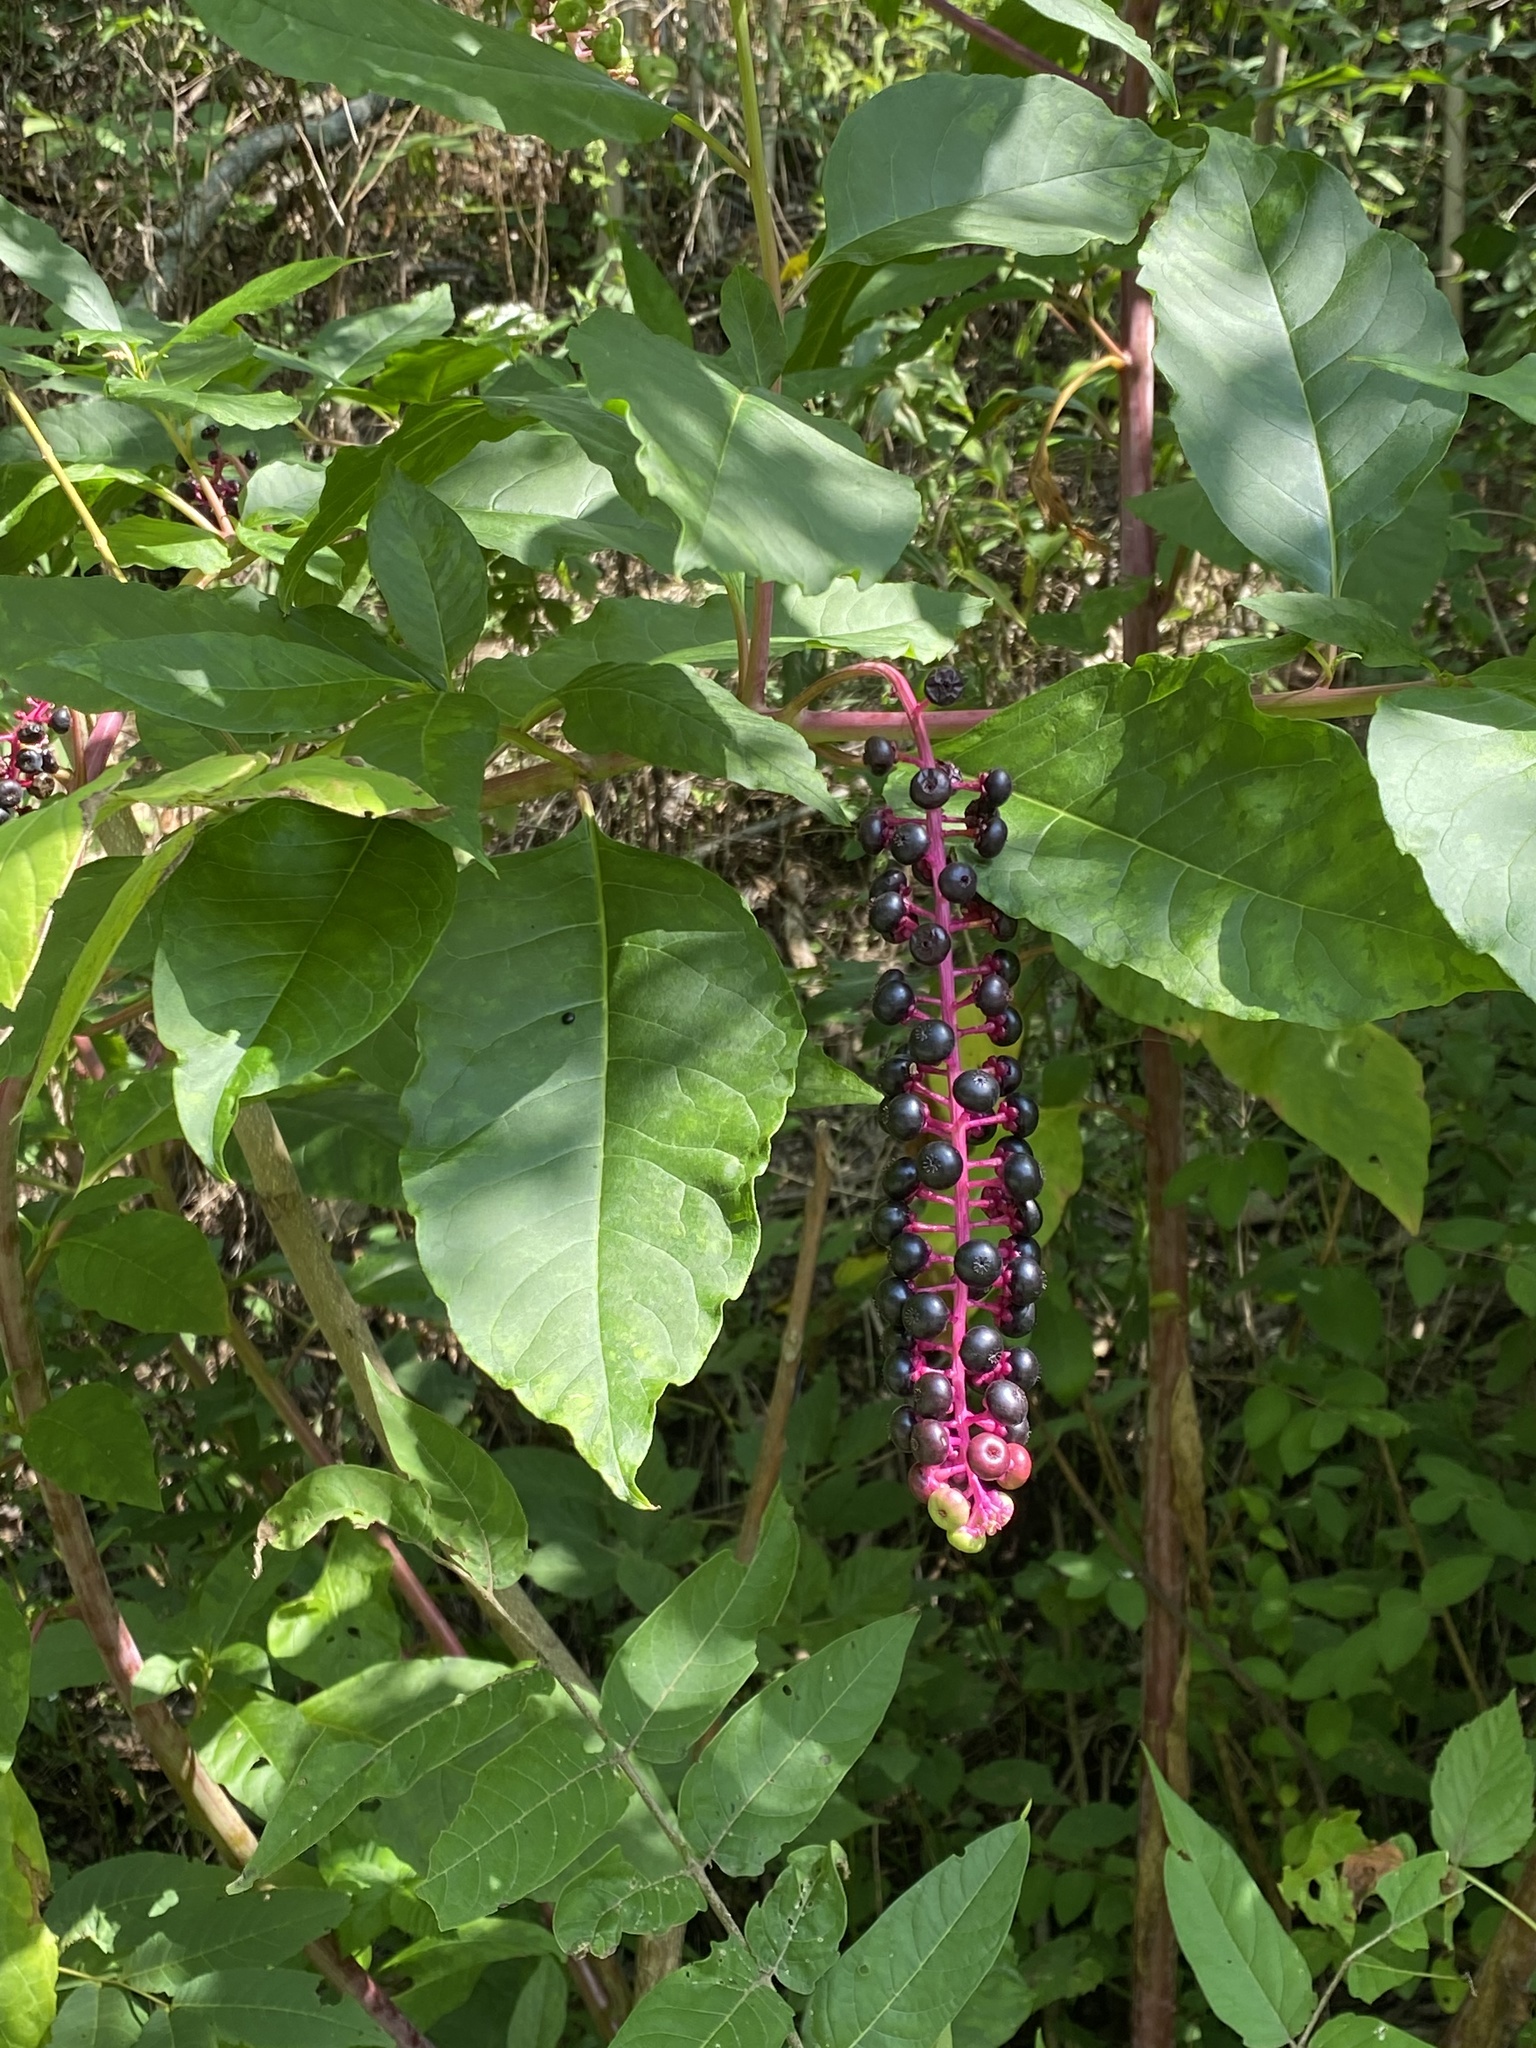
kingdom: Plantae
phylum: Tracheophyta
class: Magnoliopsida
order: Caryophyllales
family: Phytolaccaceae
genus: Phytolacca
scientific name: Phytolacca americana
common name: American pokeweed
